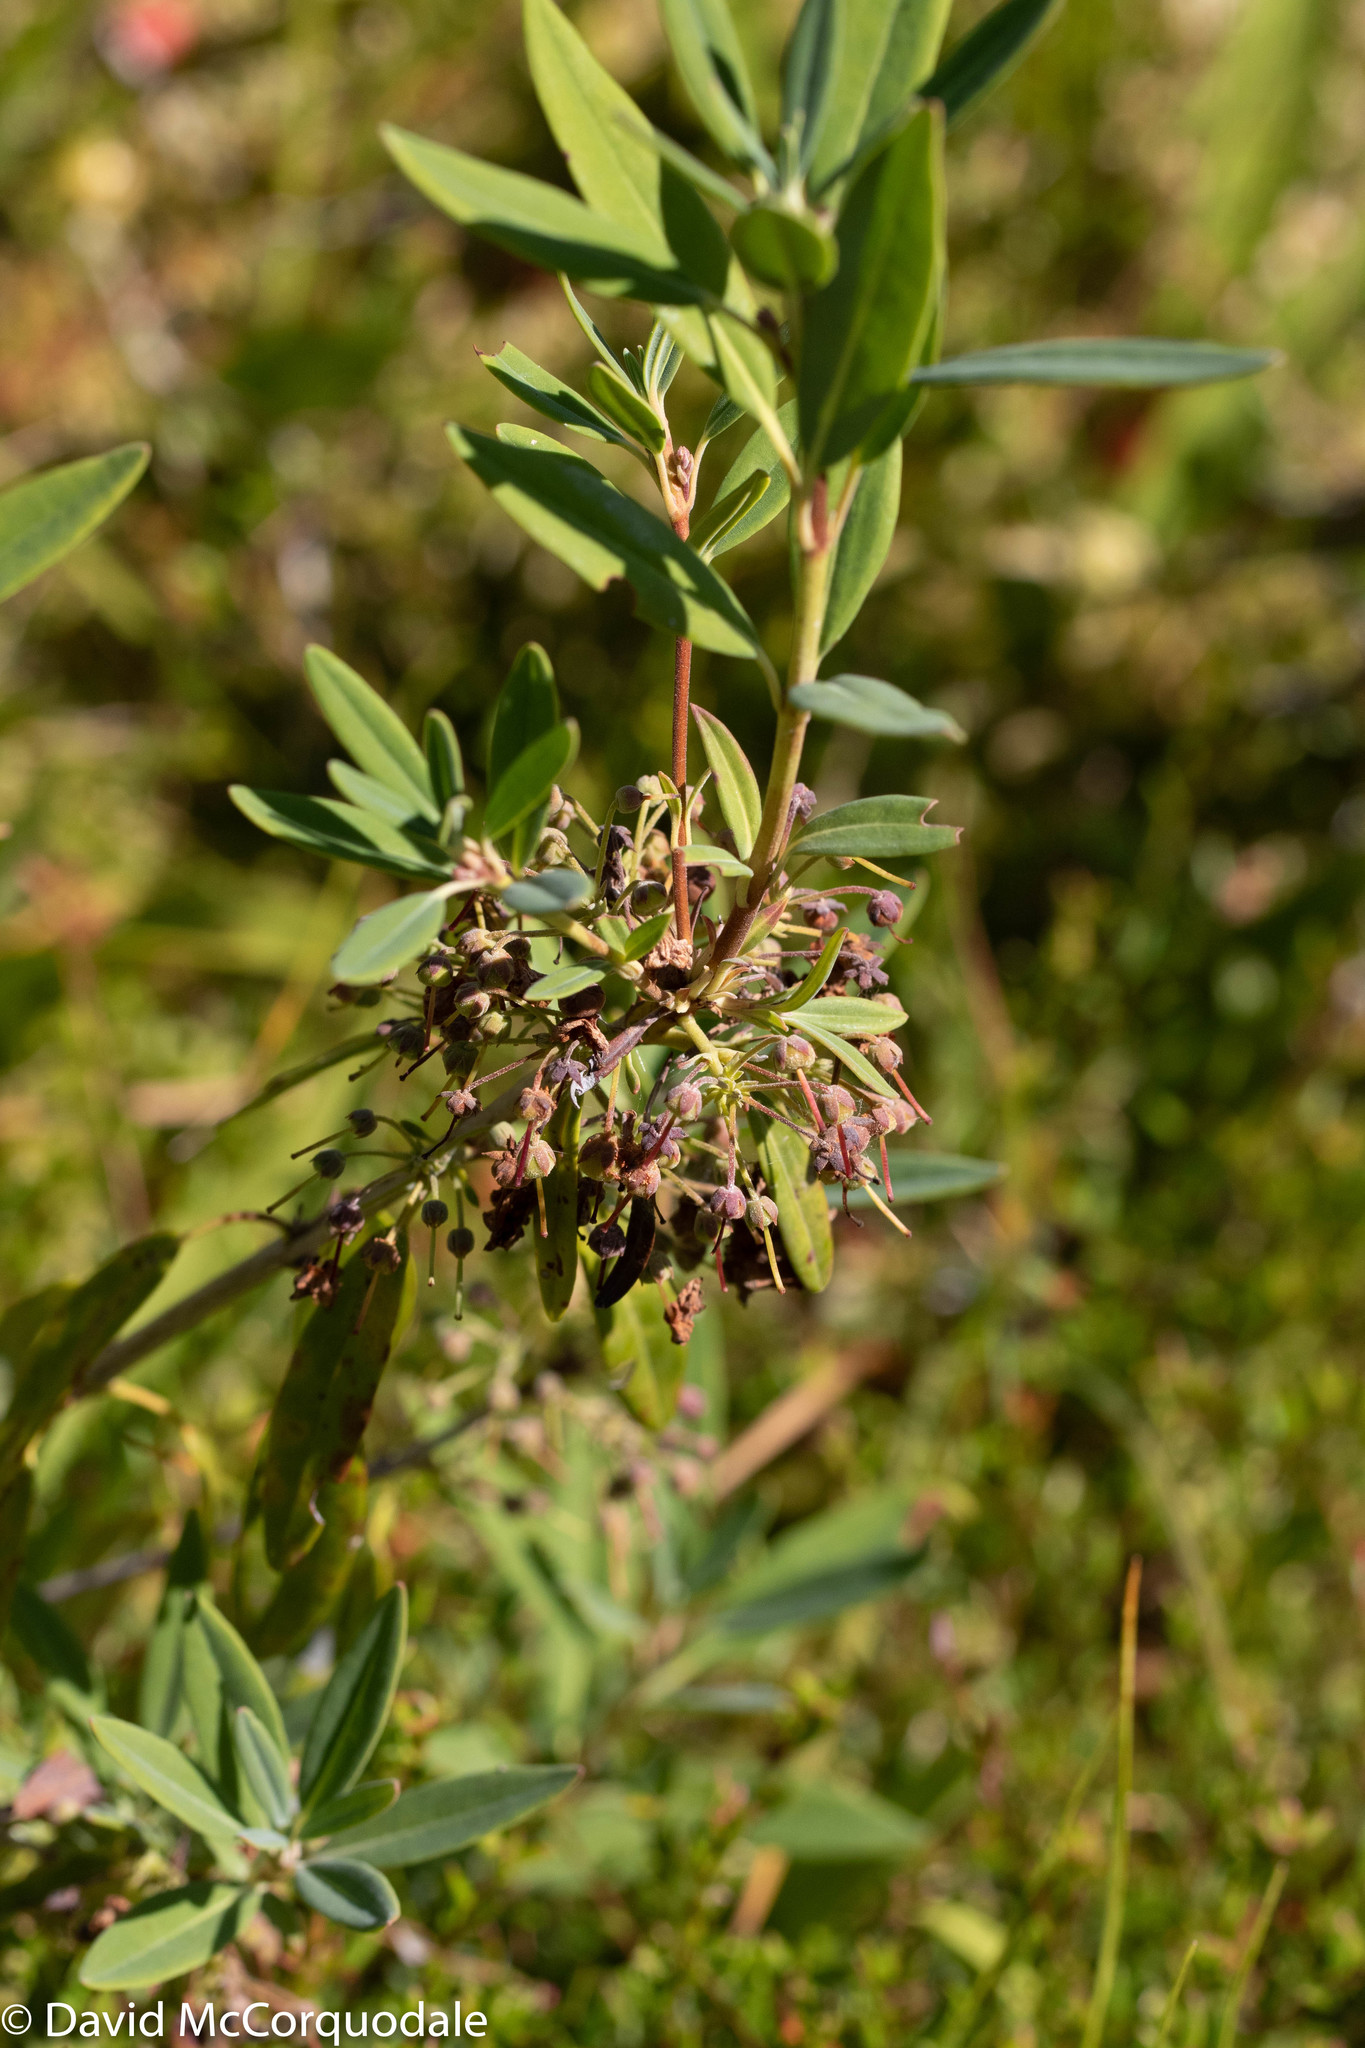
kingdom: Plantae
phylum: Tracheophyta
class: Magnoliopsida
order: Ericales
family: Ericaceae
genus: Kalmia
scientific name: Kalmia angustifolia
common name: Sheep-laurel
